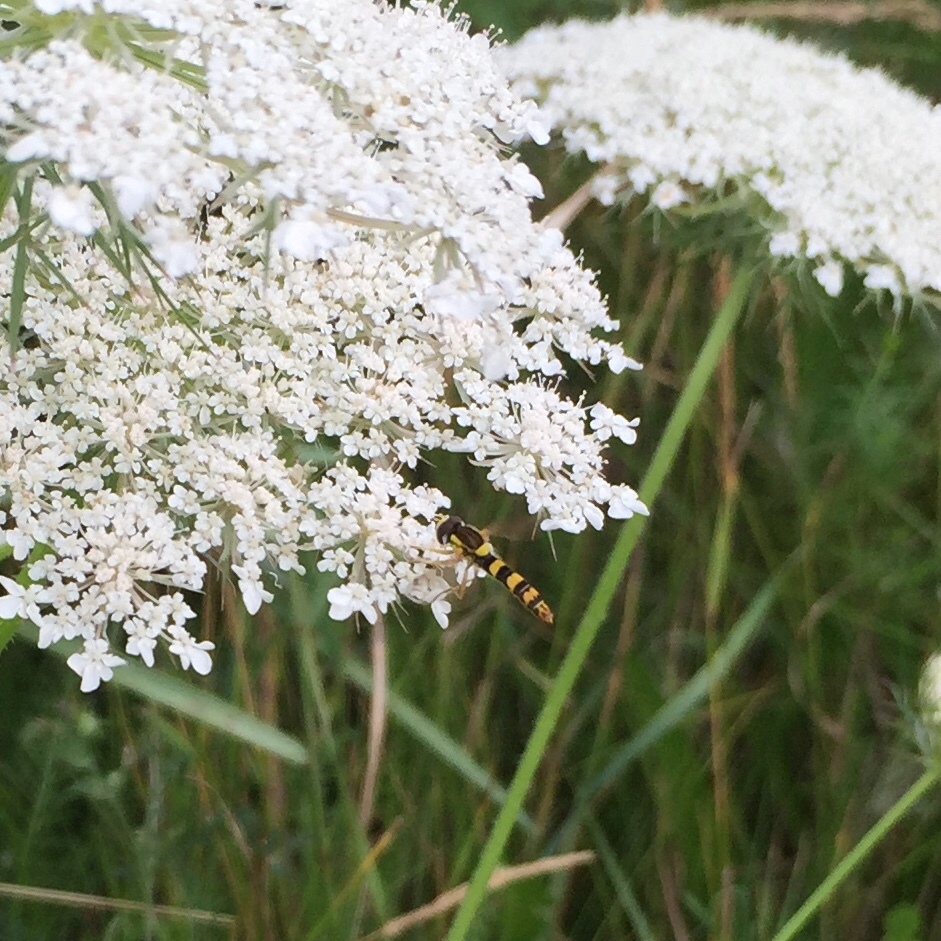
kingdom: Animalia
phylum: Arthropoda
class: Insecta
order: Diptera
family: Syrphidae
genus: Sphaerophoria
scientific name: Sphaerophoria scripta
